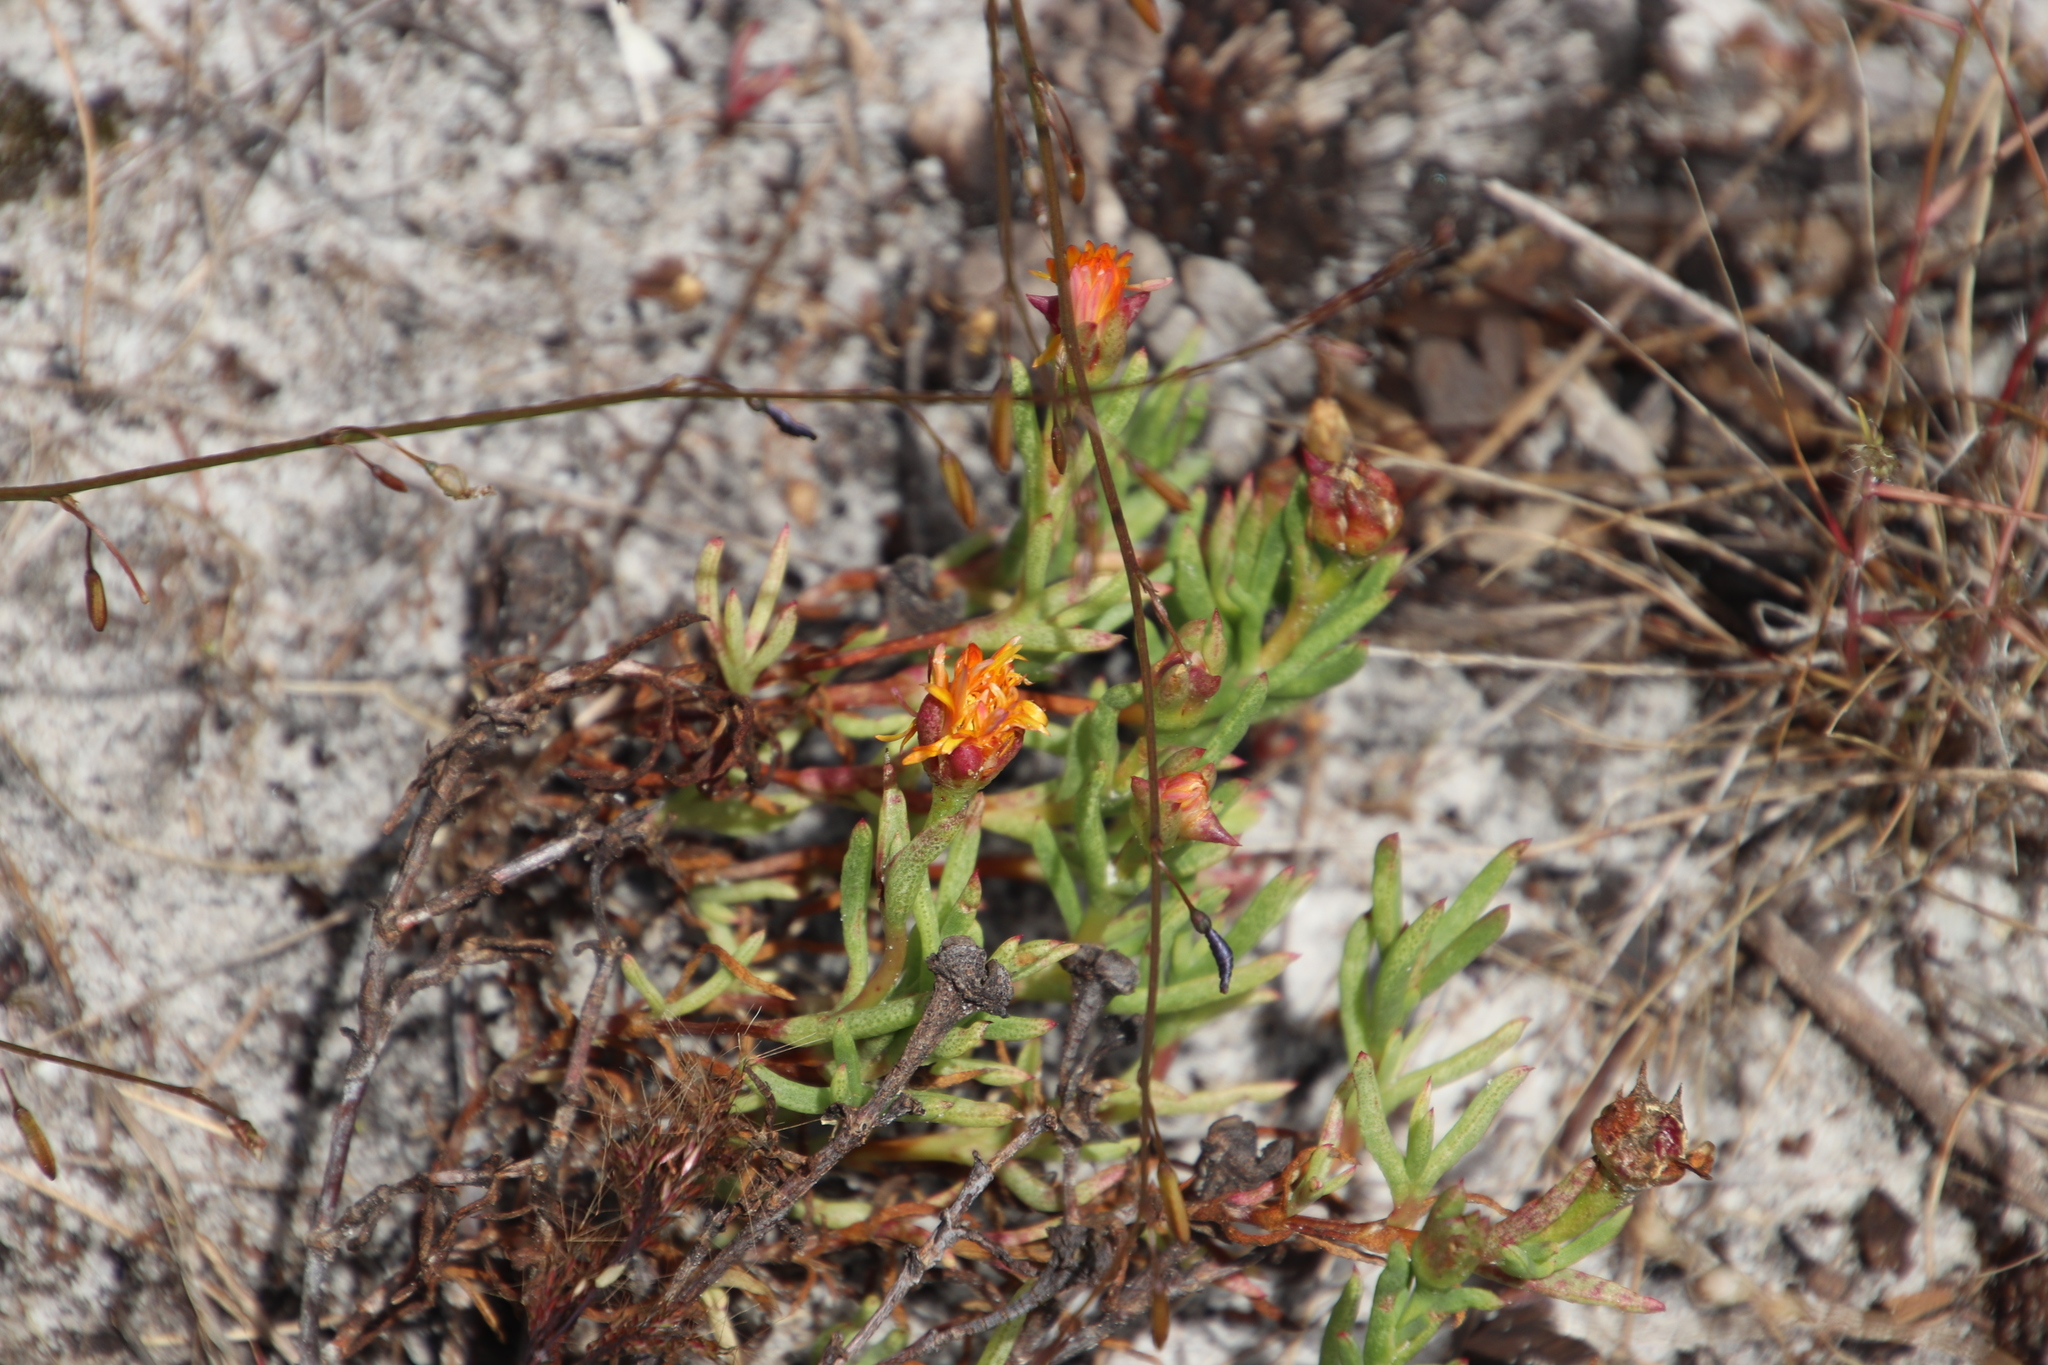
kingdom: Plantae
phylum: Tracheophyta
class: Magnoliopsida
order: Caryophyllales
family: Aizoaceae
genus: Lampranthus
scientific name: Lampranthus bicolor
